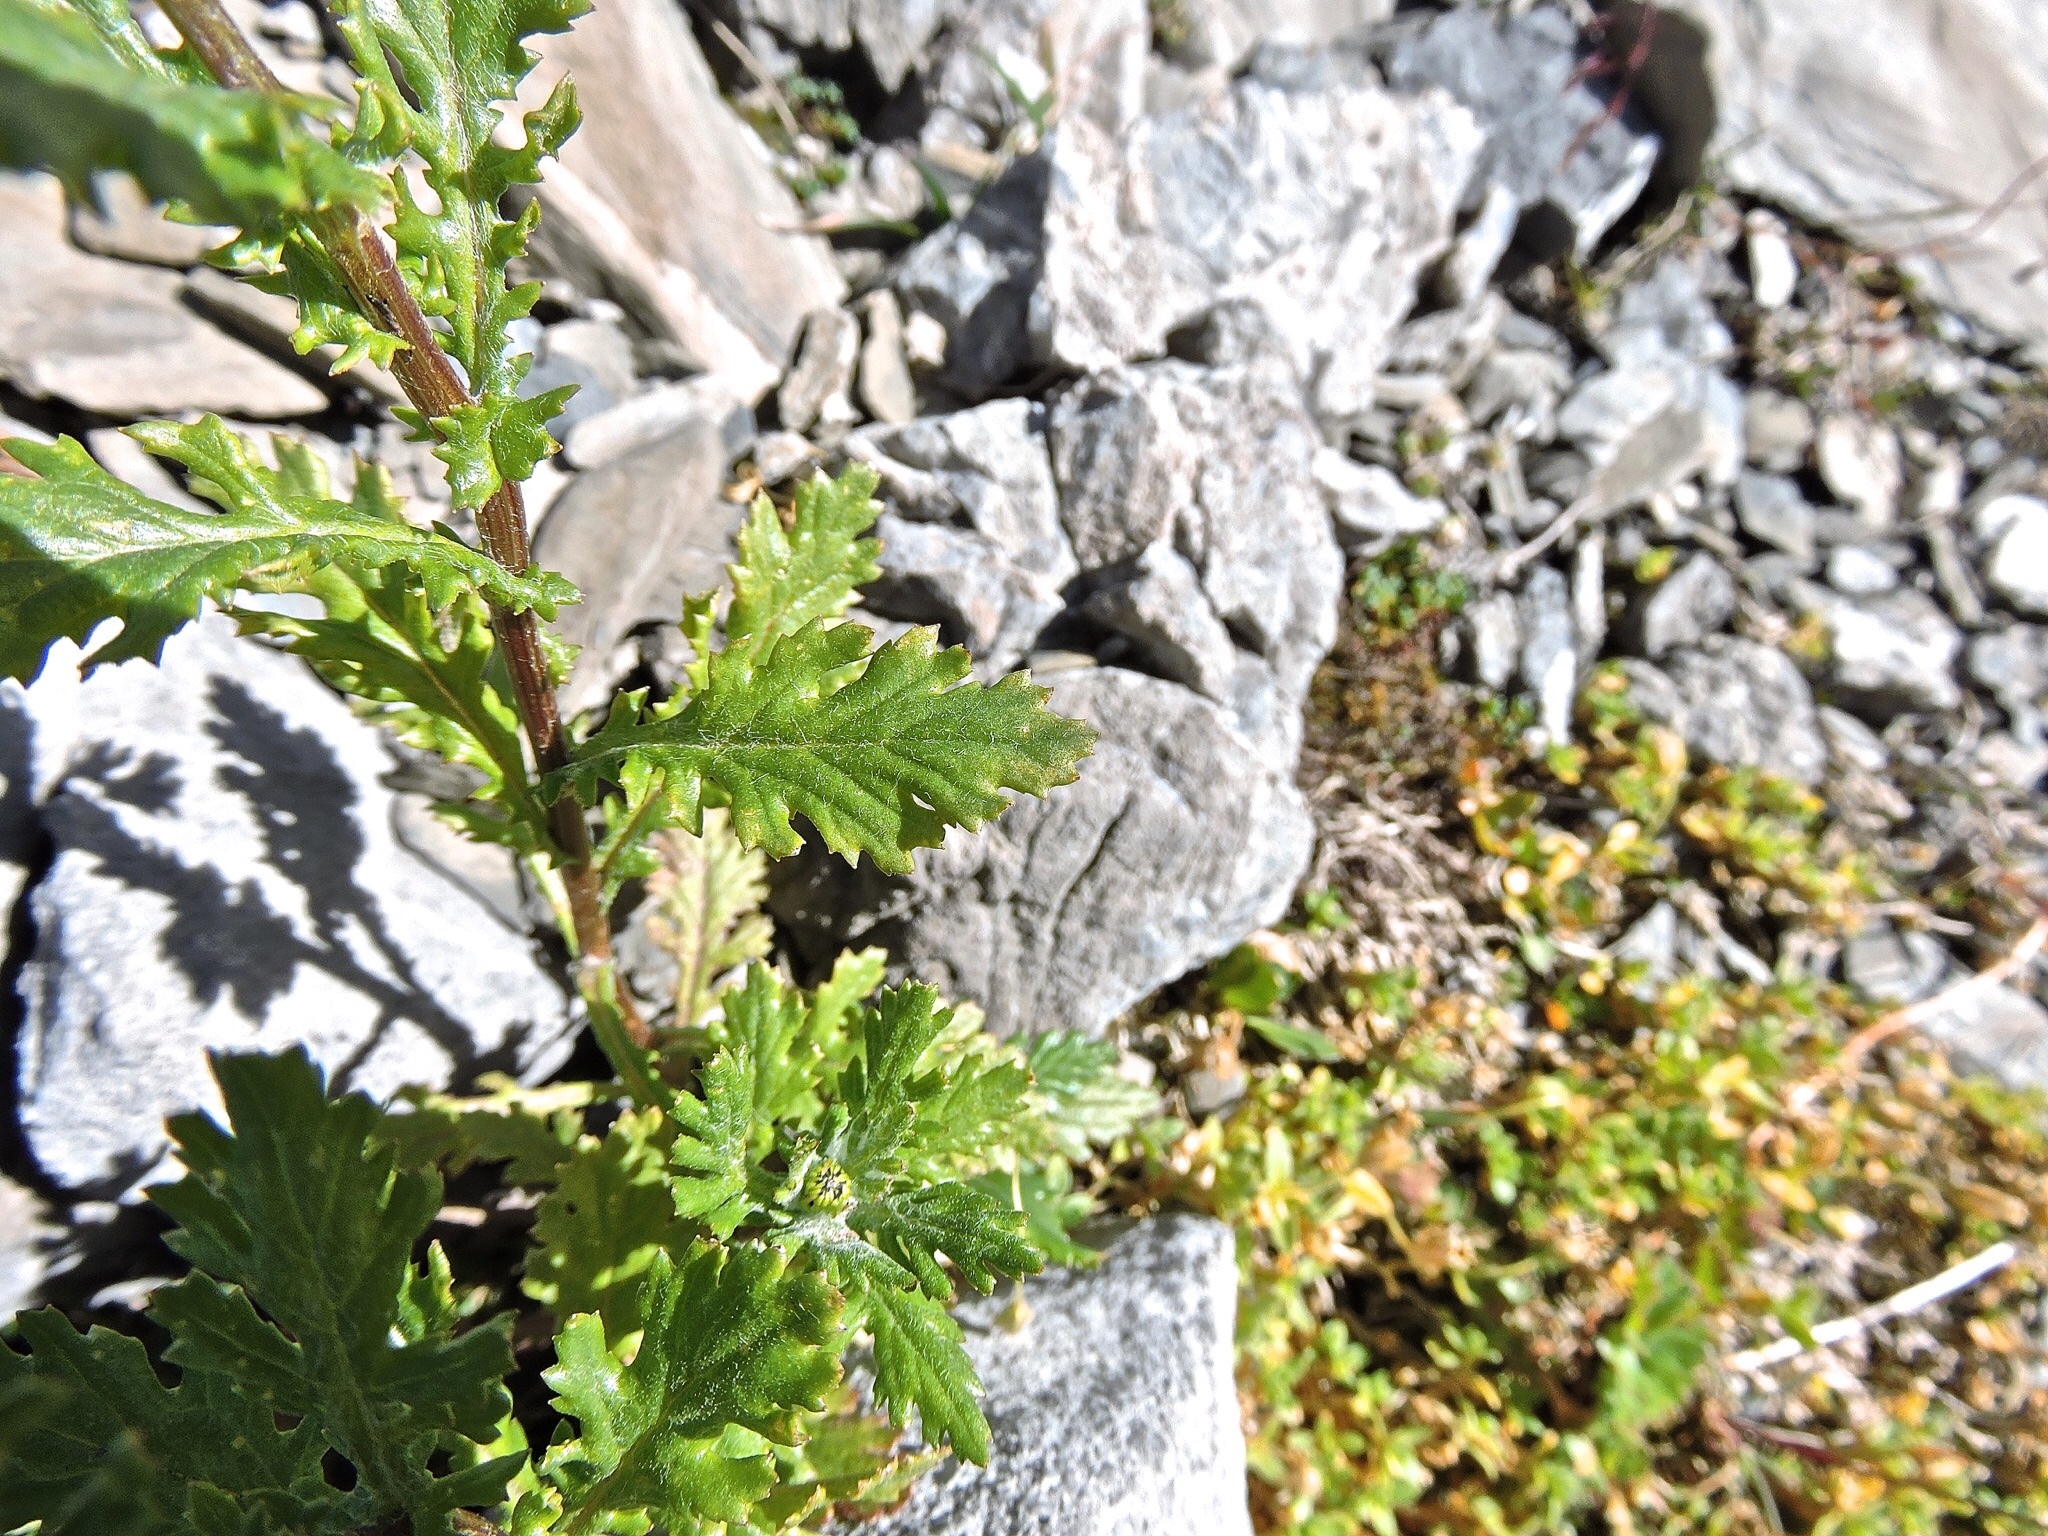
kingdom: Plantae
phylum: Tracheophyta
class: Magnoliopsida
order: Asterales
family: Asteraceae
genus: Senecio
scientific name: Senecio rupestris
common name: Rock ragwort
